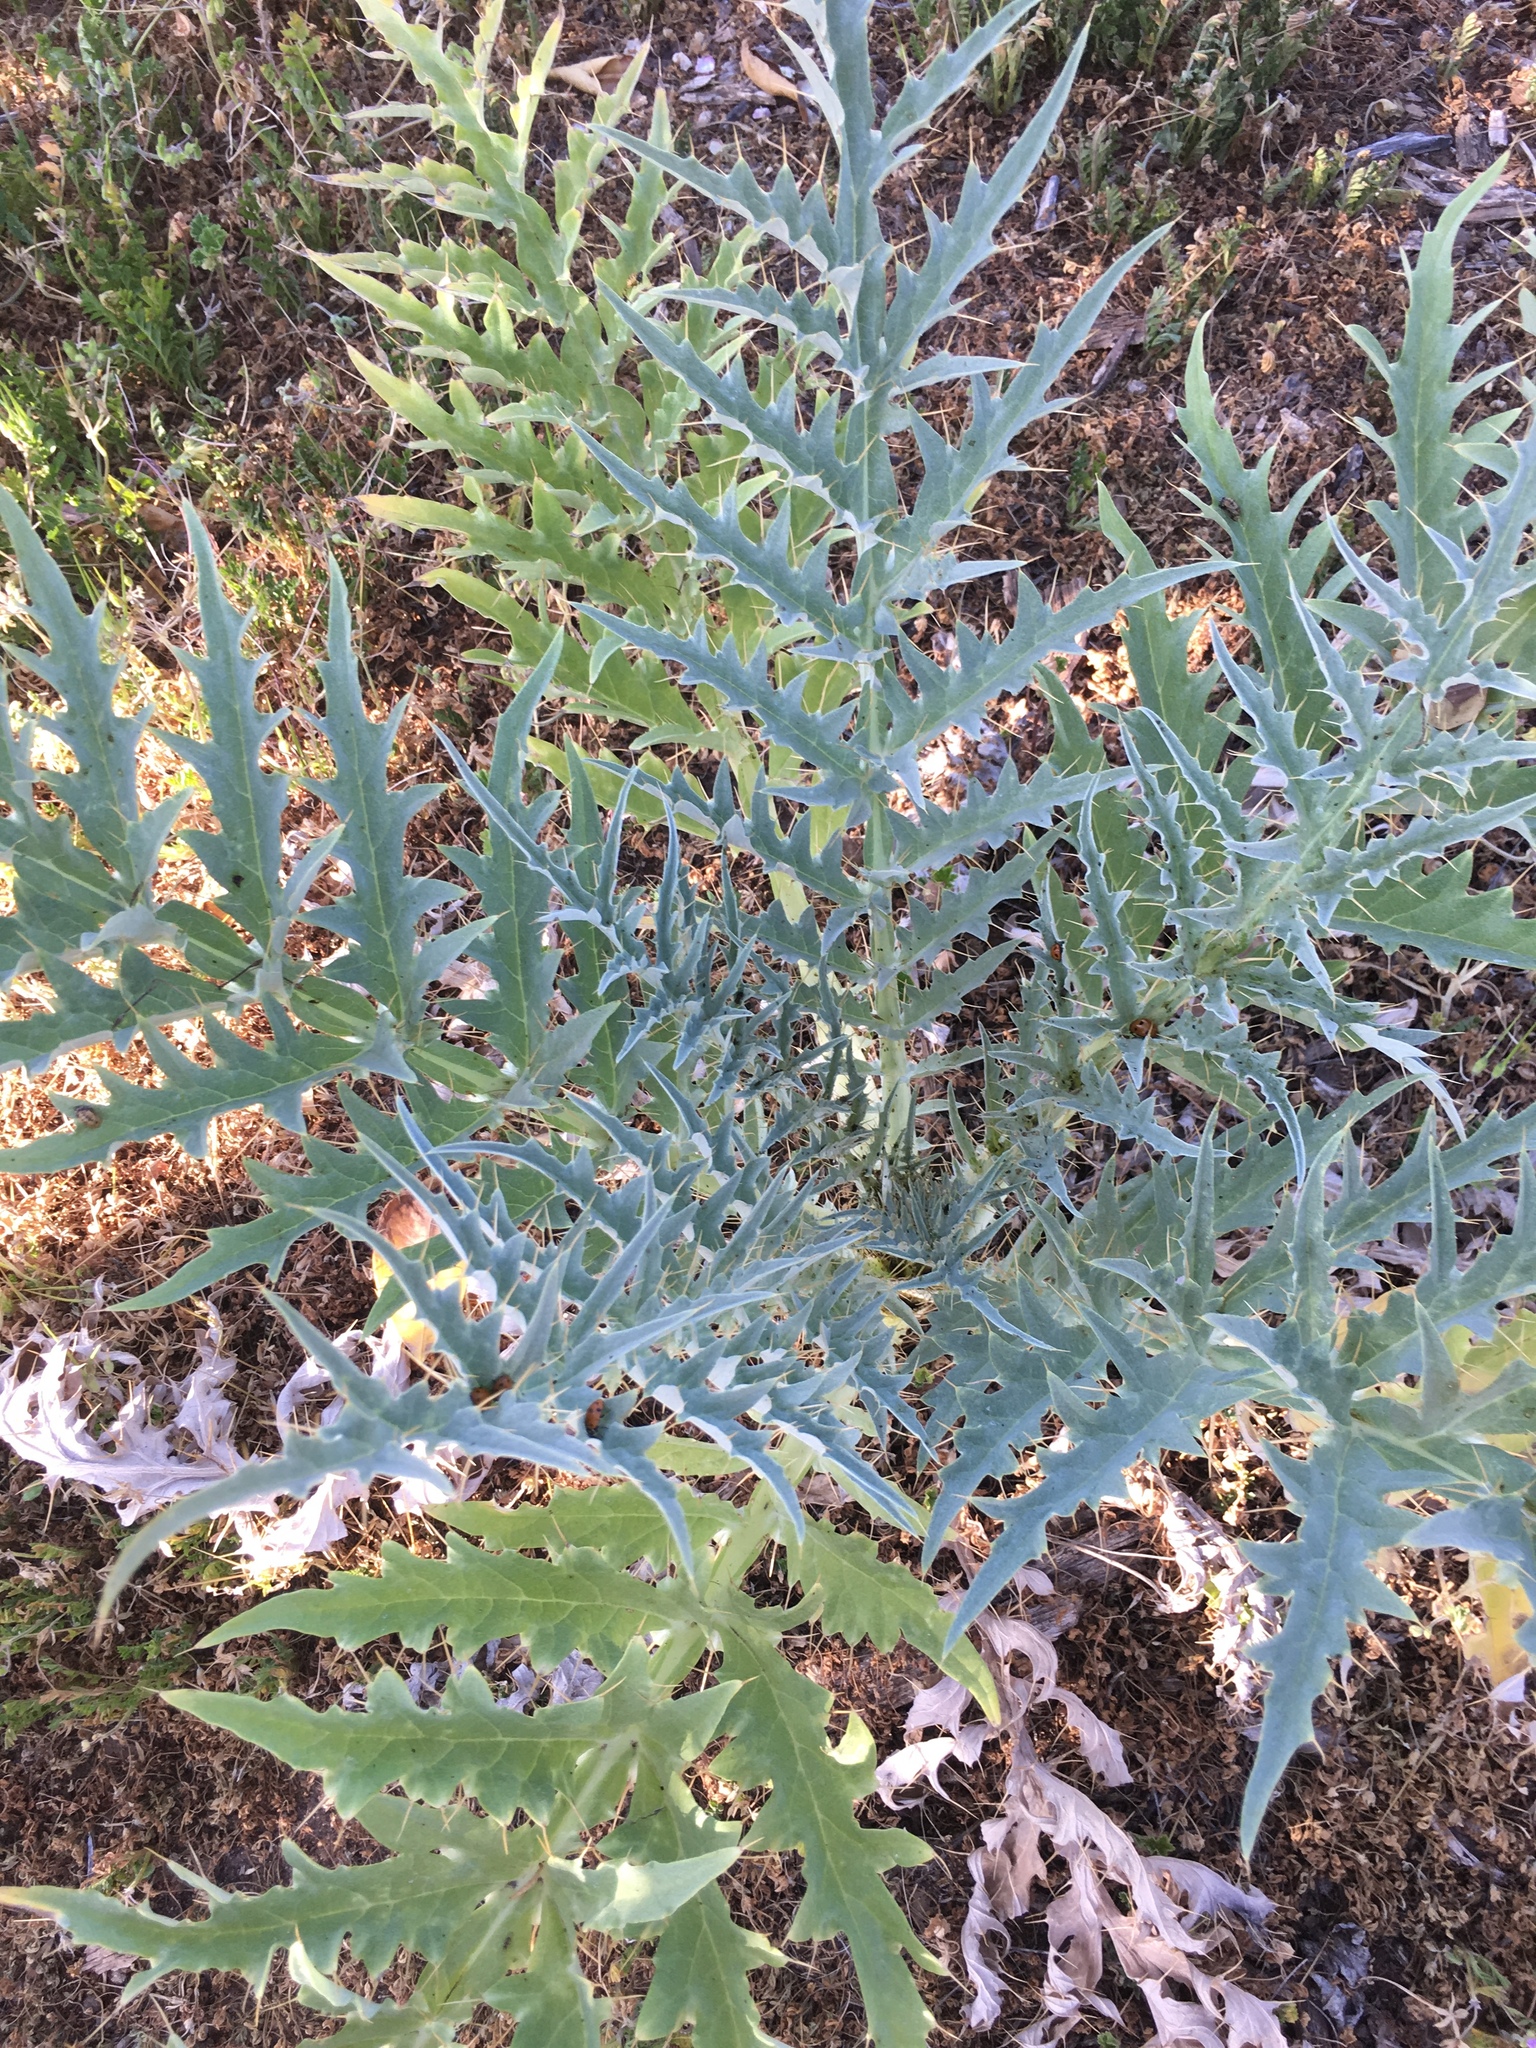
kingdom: Plantae
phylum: Tracheophyta
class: Magnoliopsida
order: Asterales
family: Asteraceae
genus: Cynara
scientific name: Cynara cardunculus
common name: Globe artichoke
